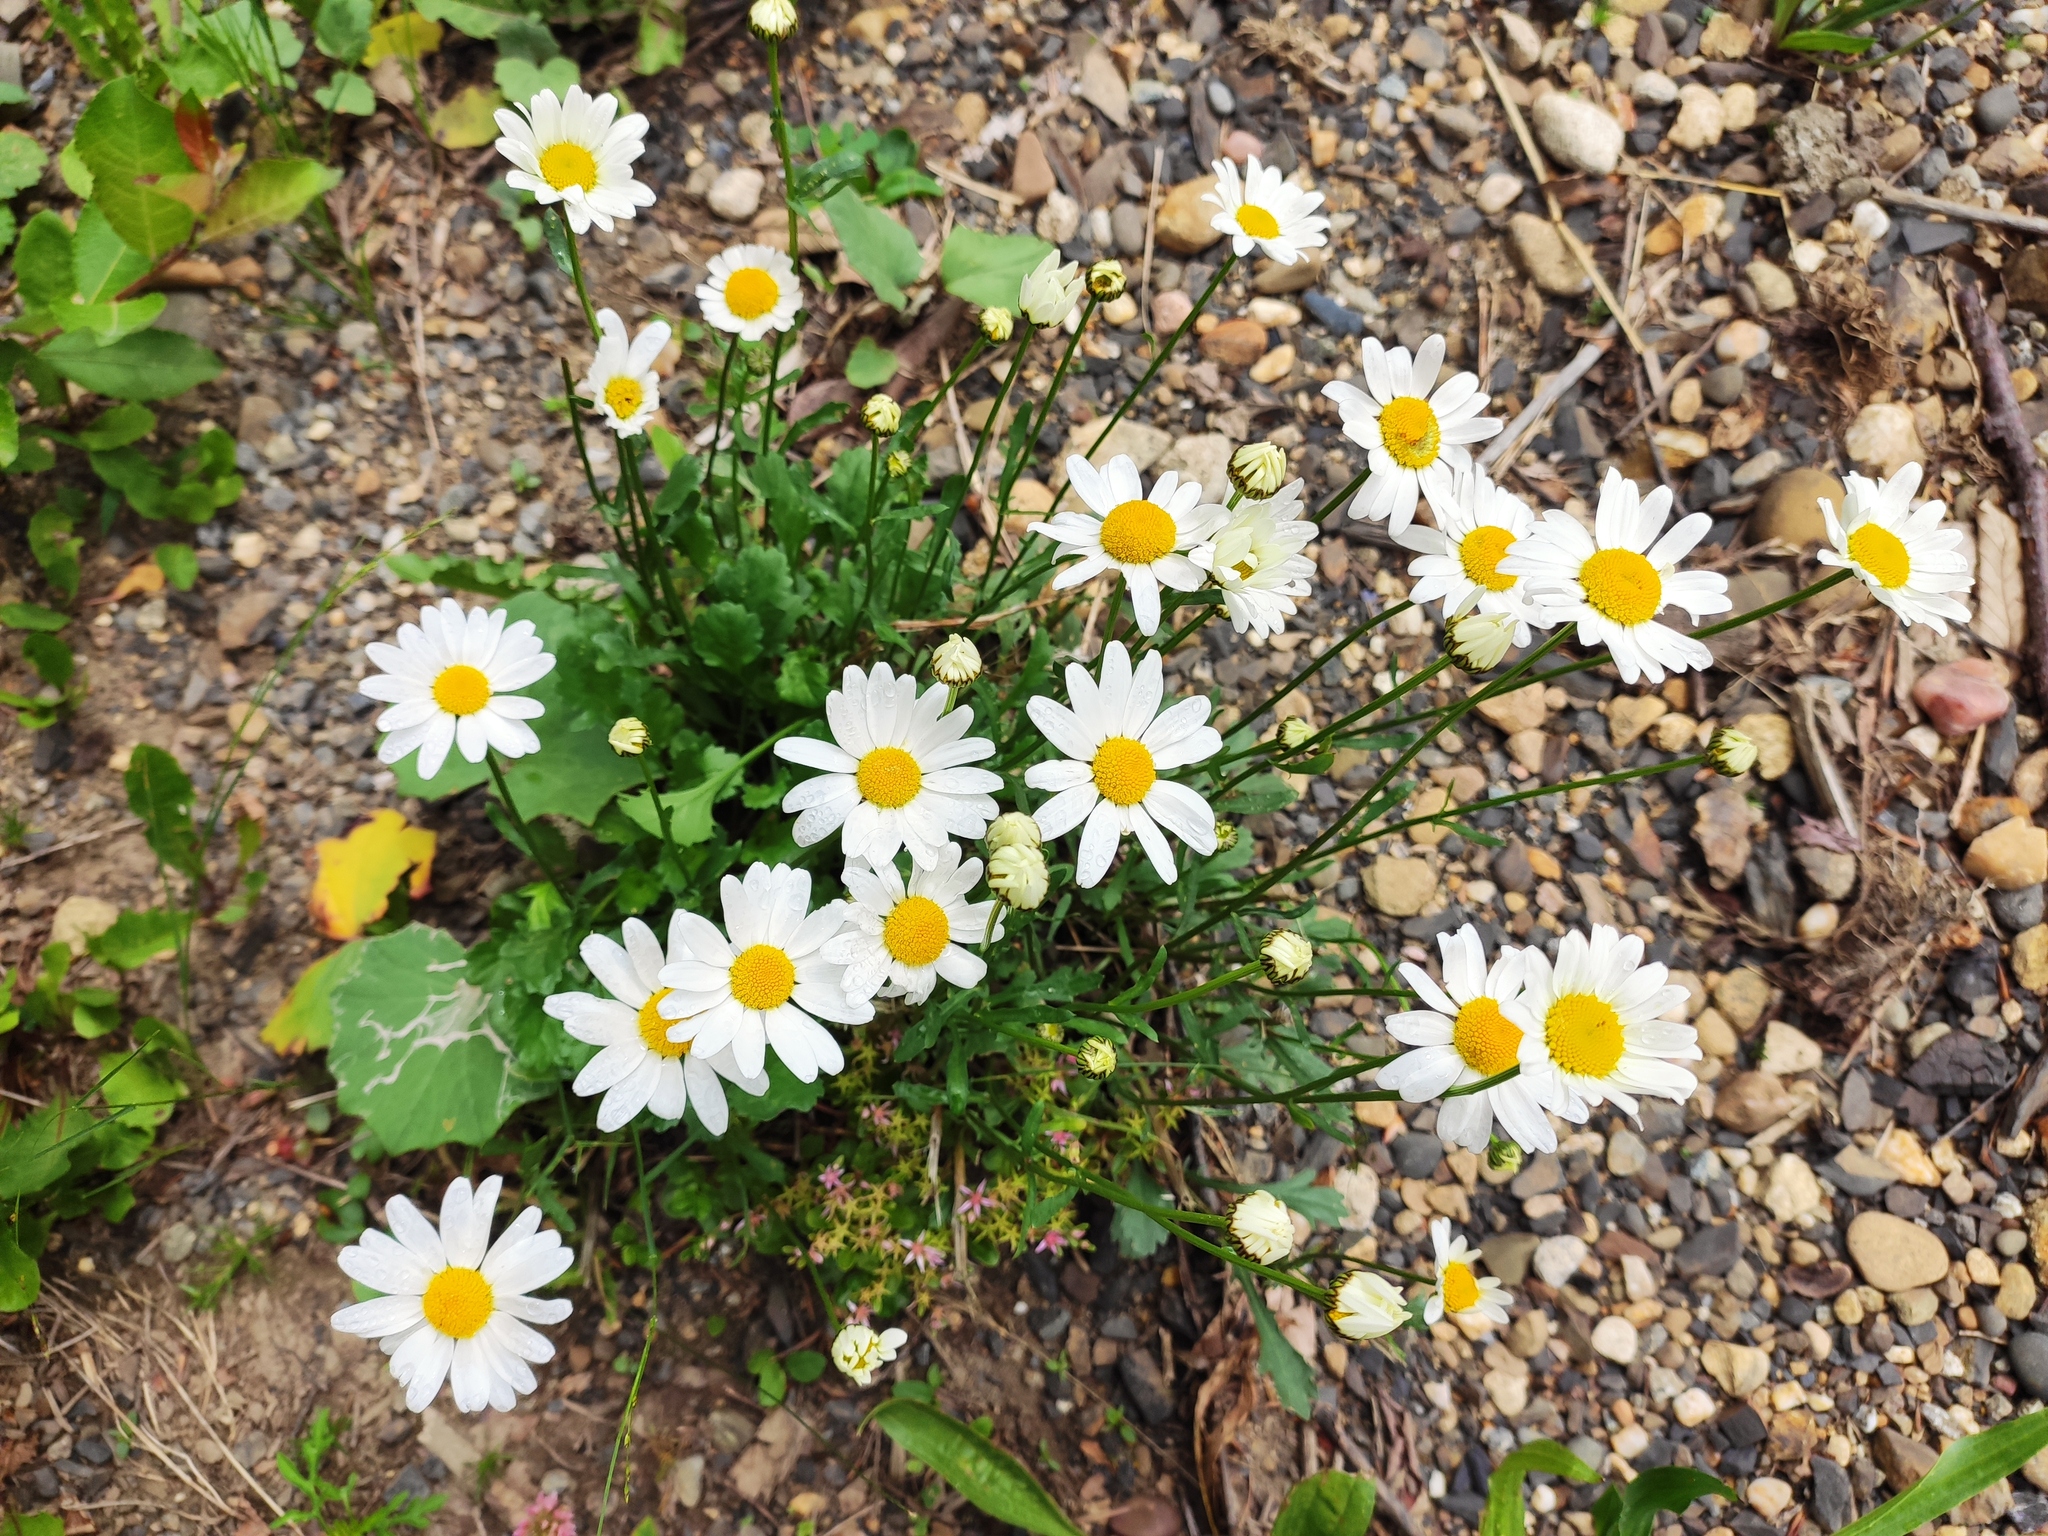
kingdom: Plantae
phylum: Tracheophyta
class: Magnoliopsida
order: Asterales
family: Asteraceae
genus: Leucanthemum
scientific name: Leucanthemum vulgare
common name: Oxeye daisy
